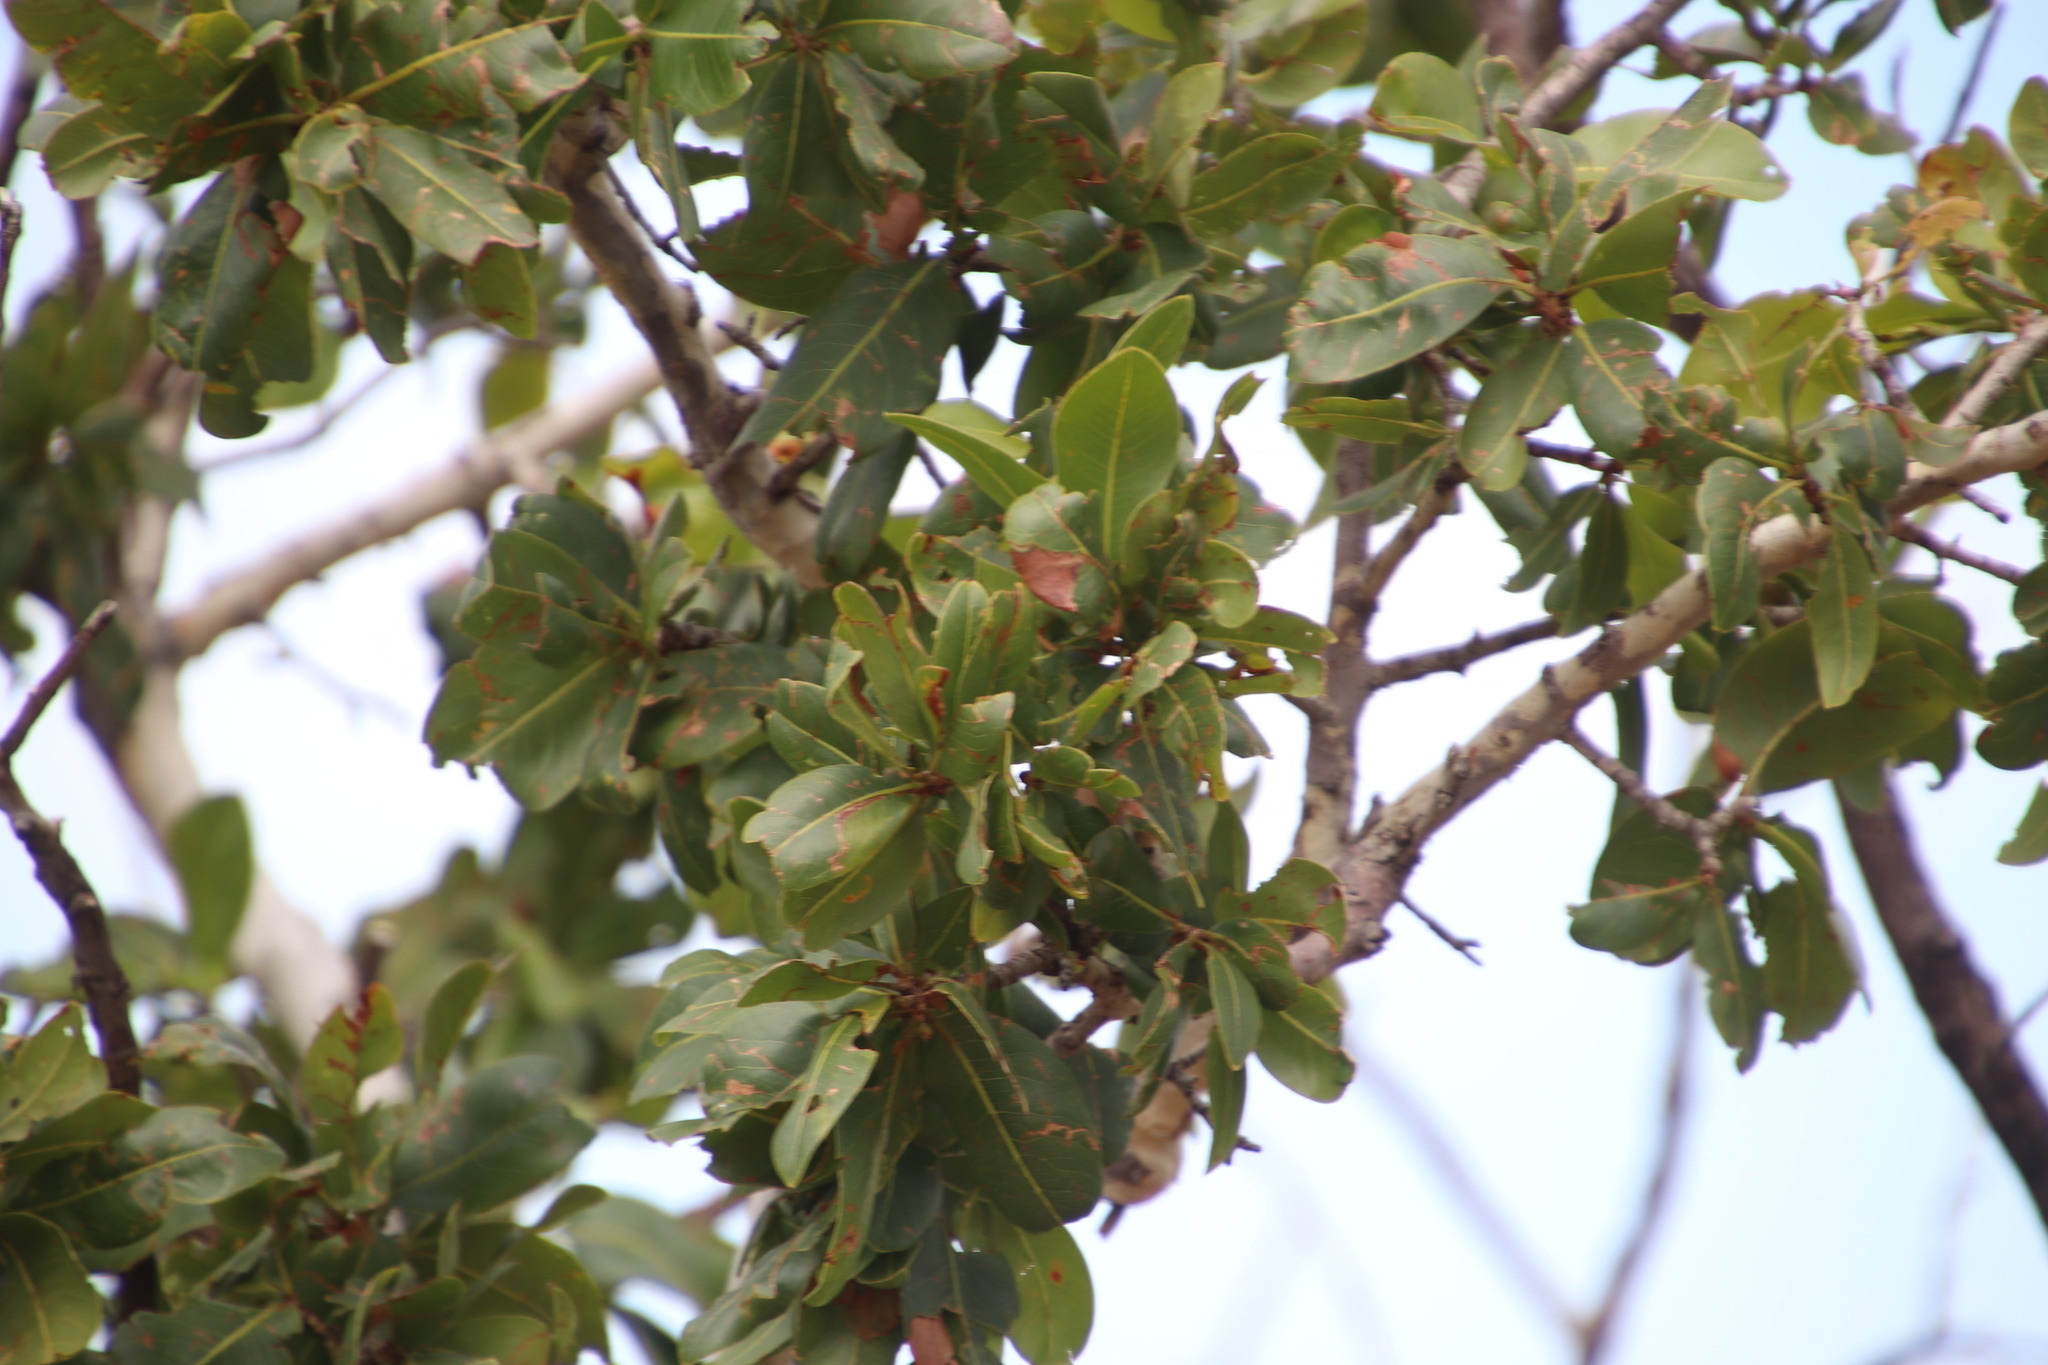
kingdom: Plantae
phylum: Tracheophyta
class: Magnoliopsida
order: Malpighiales
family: Ochnaceae
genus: Ochna
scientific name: Ochna pulchra
